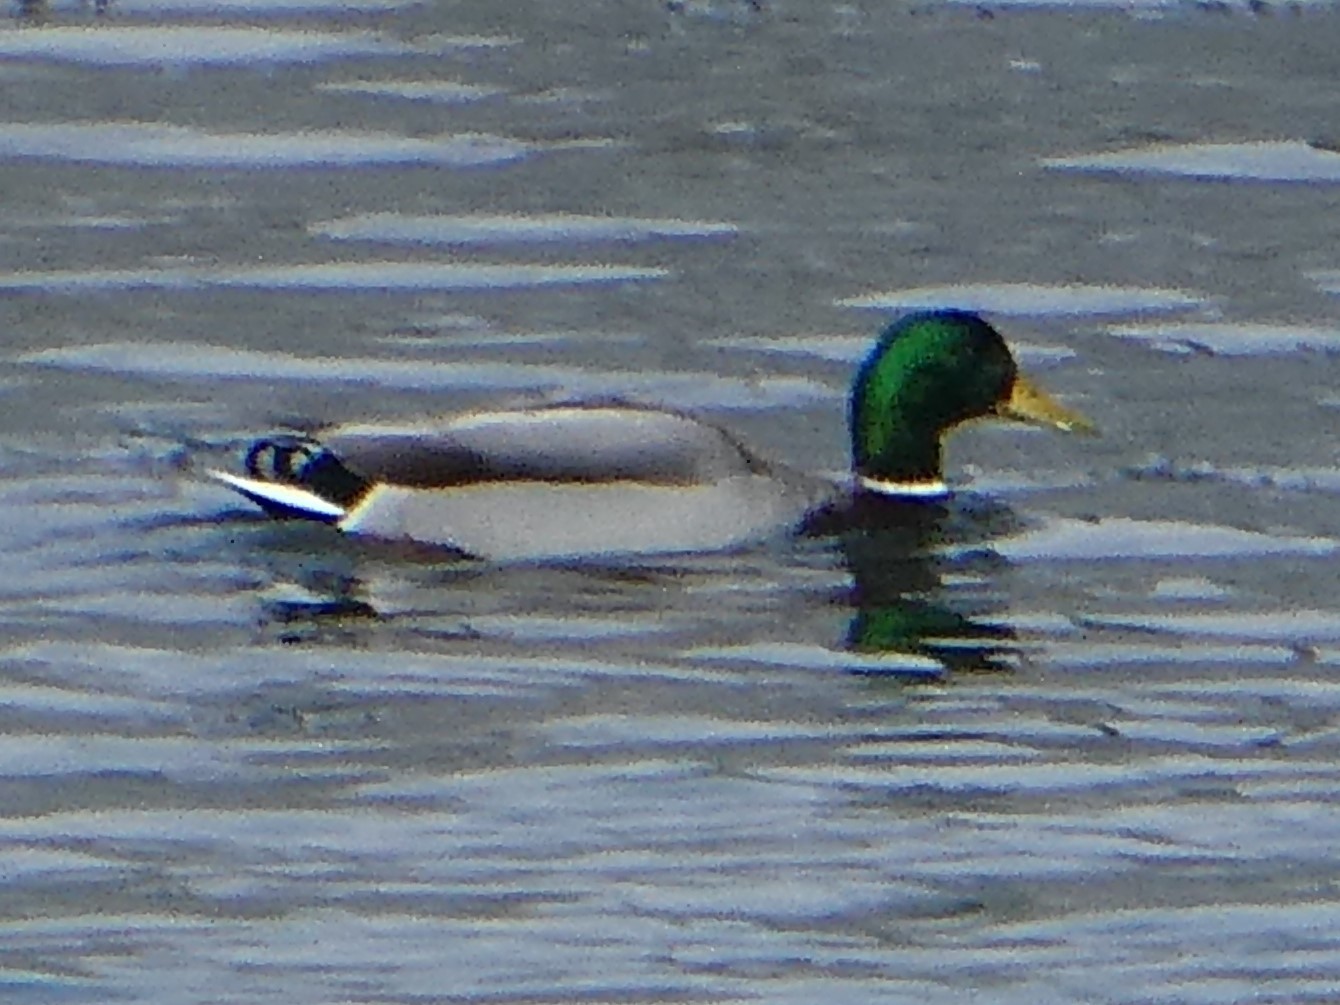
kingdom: Animalia
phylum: Chordata
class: Aves
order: Anseriformes
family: Anatidae
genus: Anas
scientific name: Anas platyrhynchos
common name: Mallard
